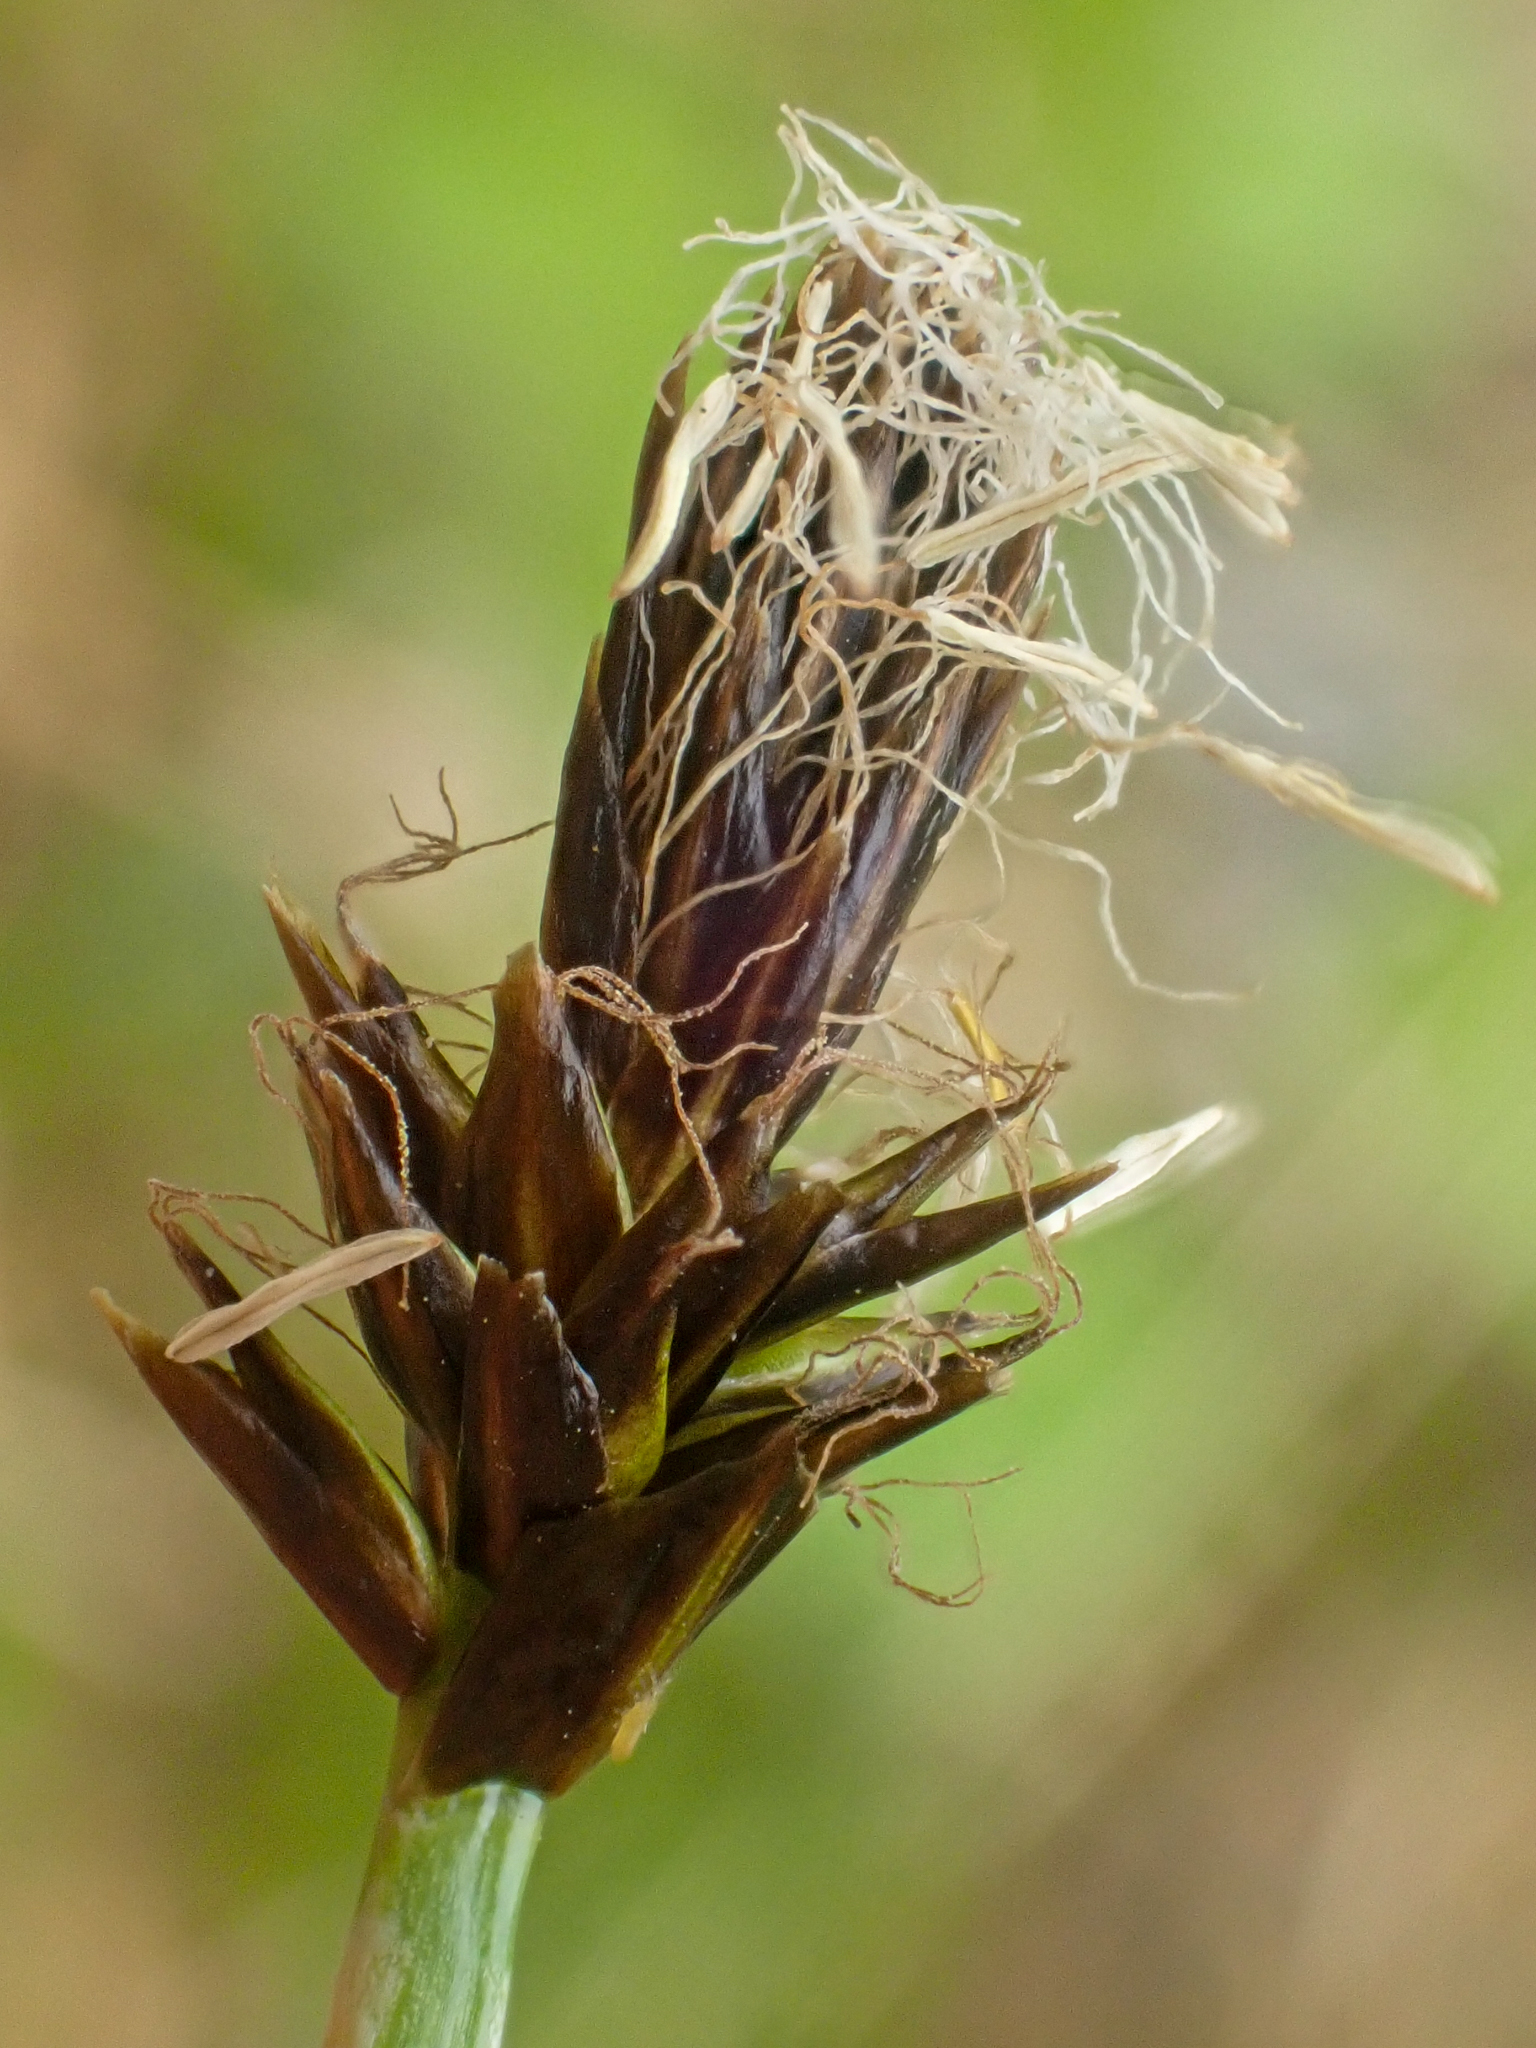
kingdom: Plantae
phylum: Tracheophyta
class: Liliopsida
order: Poales
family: Cyperaceae
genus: Carex
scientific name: Carex nigricans
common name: Black alpine sedge
